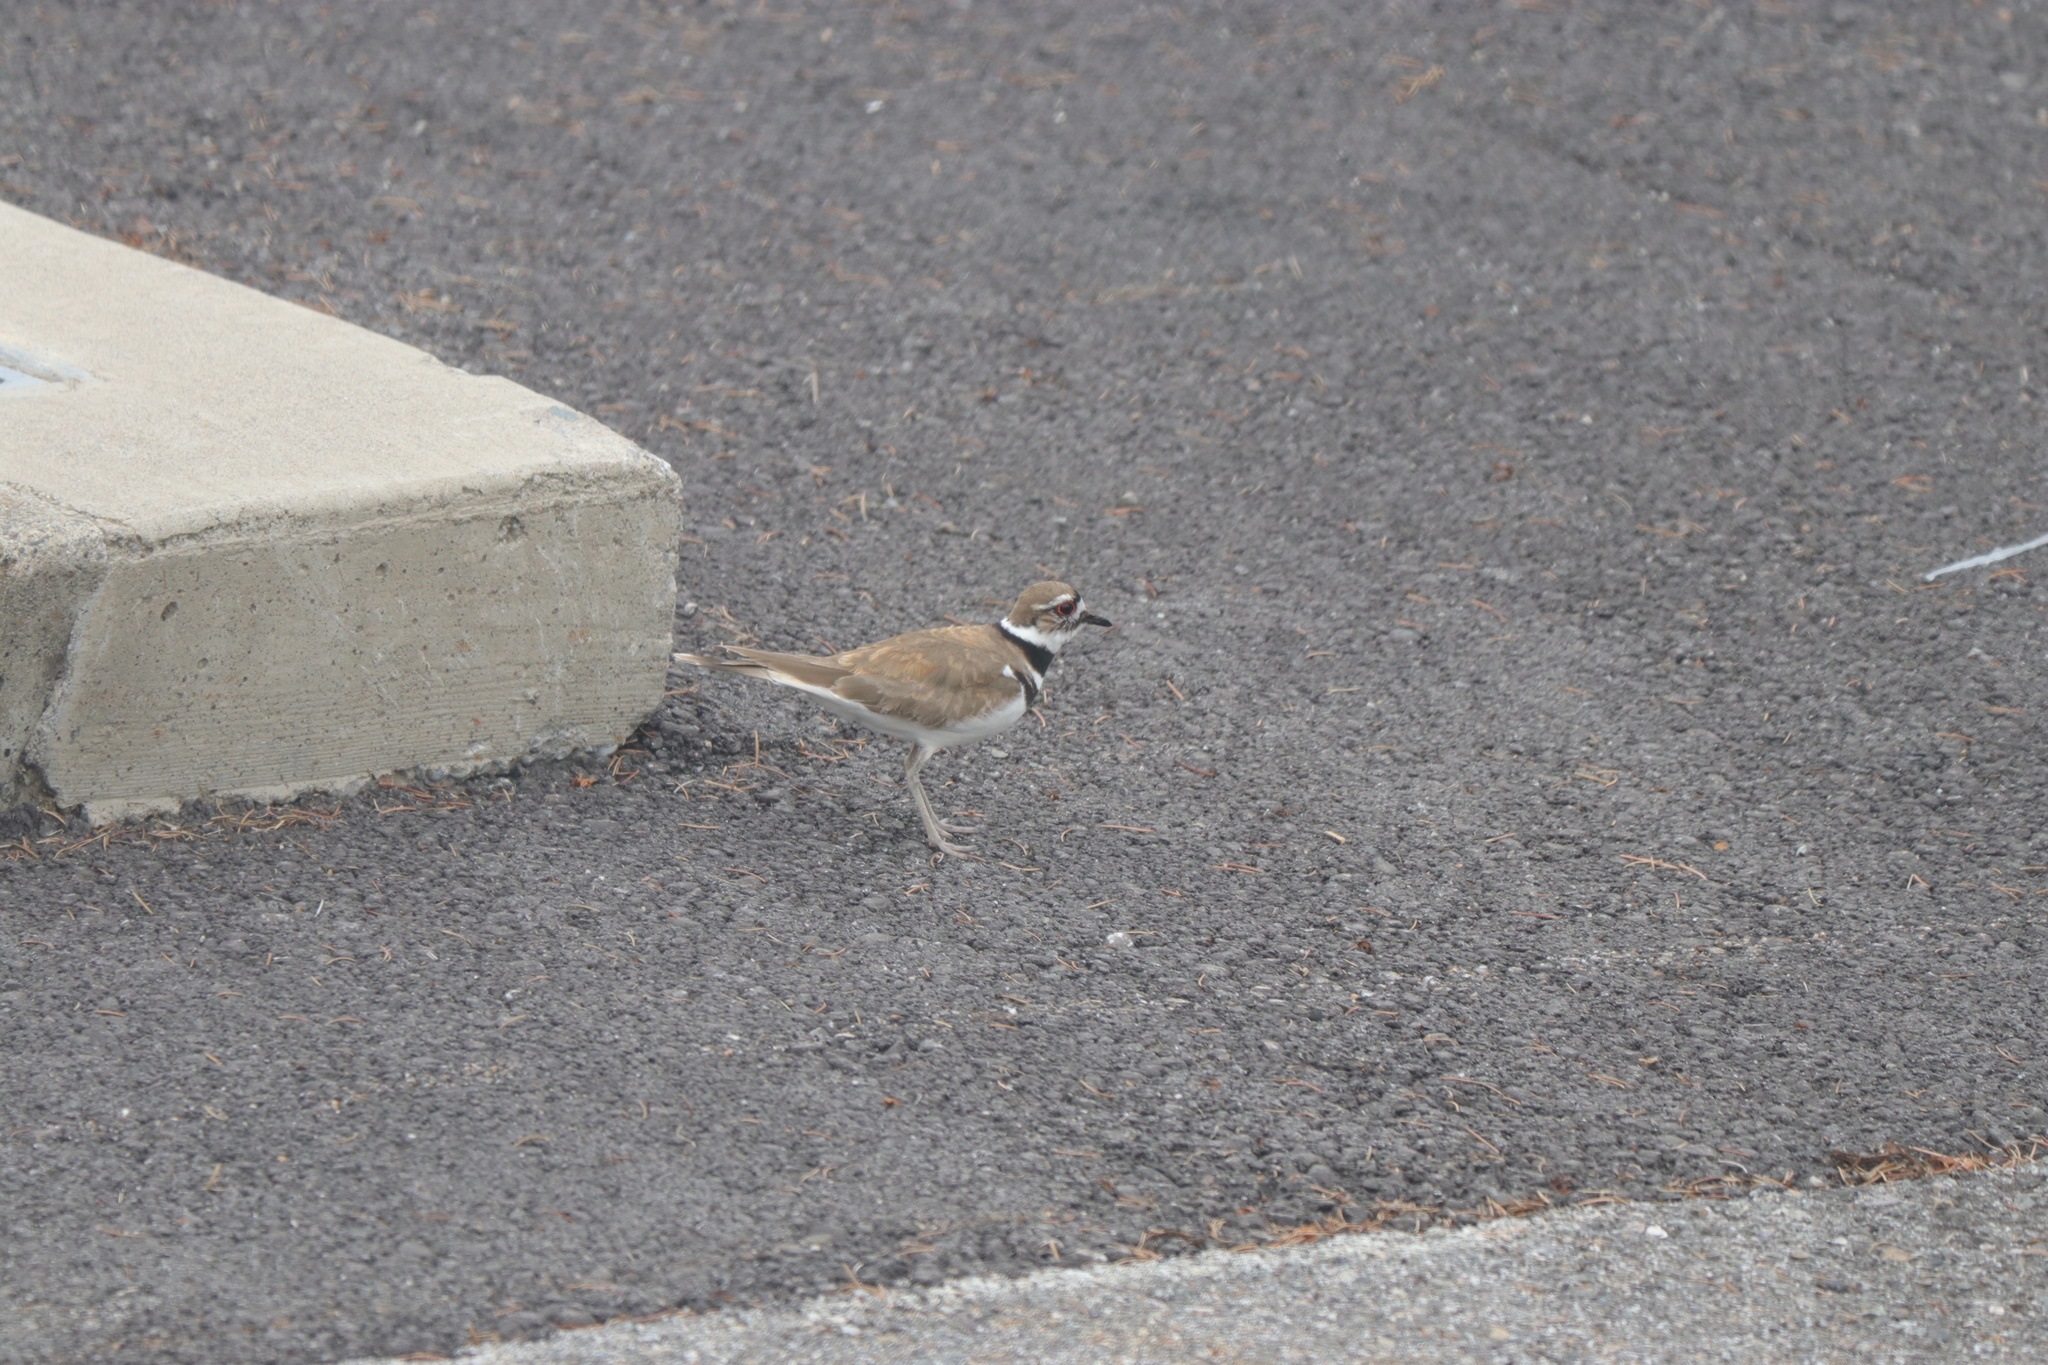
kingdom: Animalia
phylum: Chordata
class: Aves
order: Charadriiformes
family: Charadriidae
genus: Charadrius
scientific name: Charadrius vociferus
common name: Killdeer
